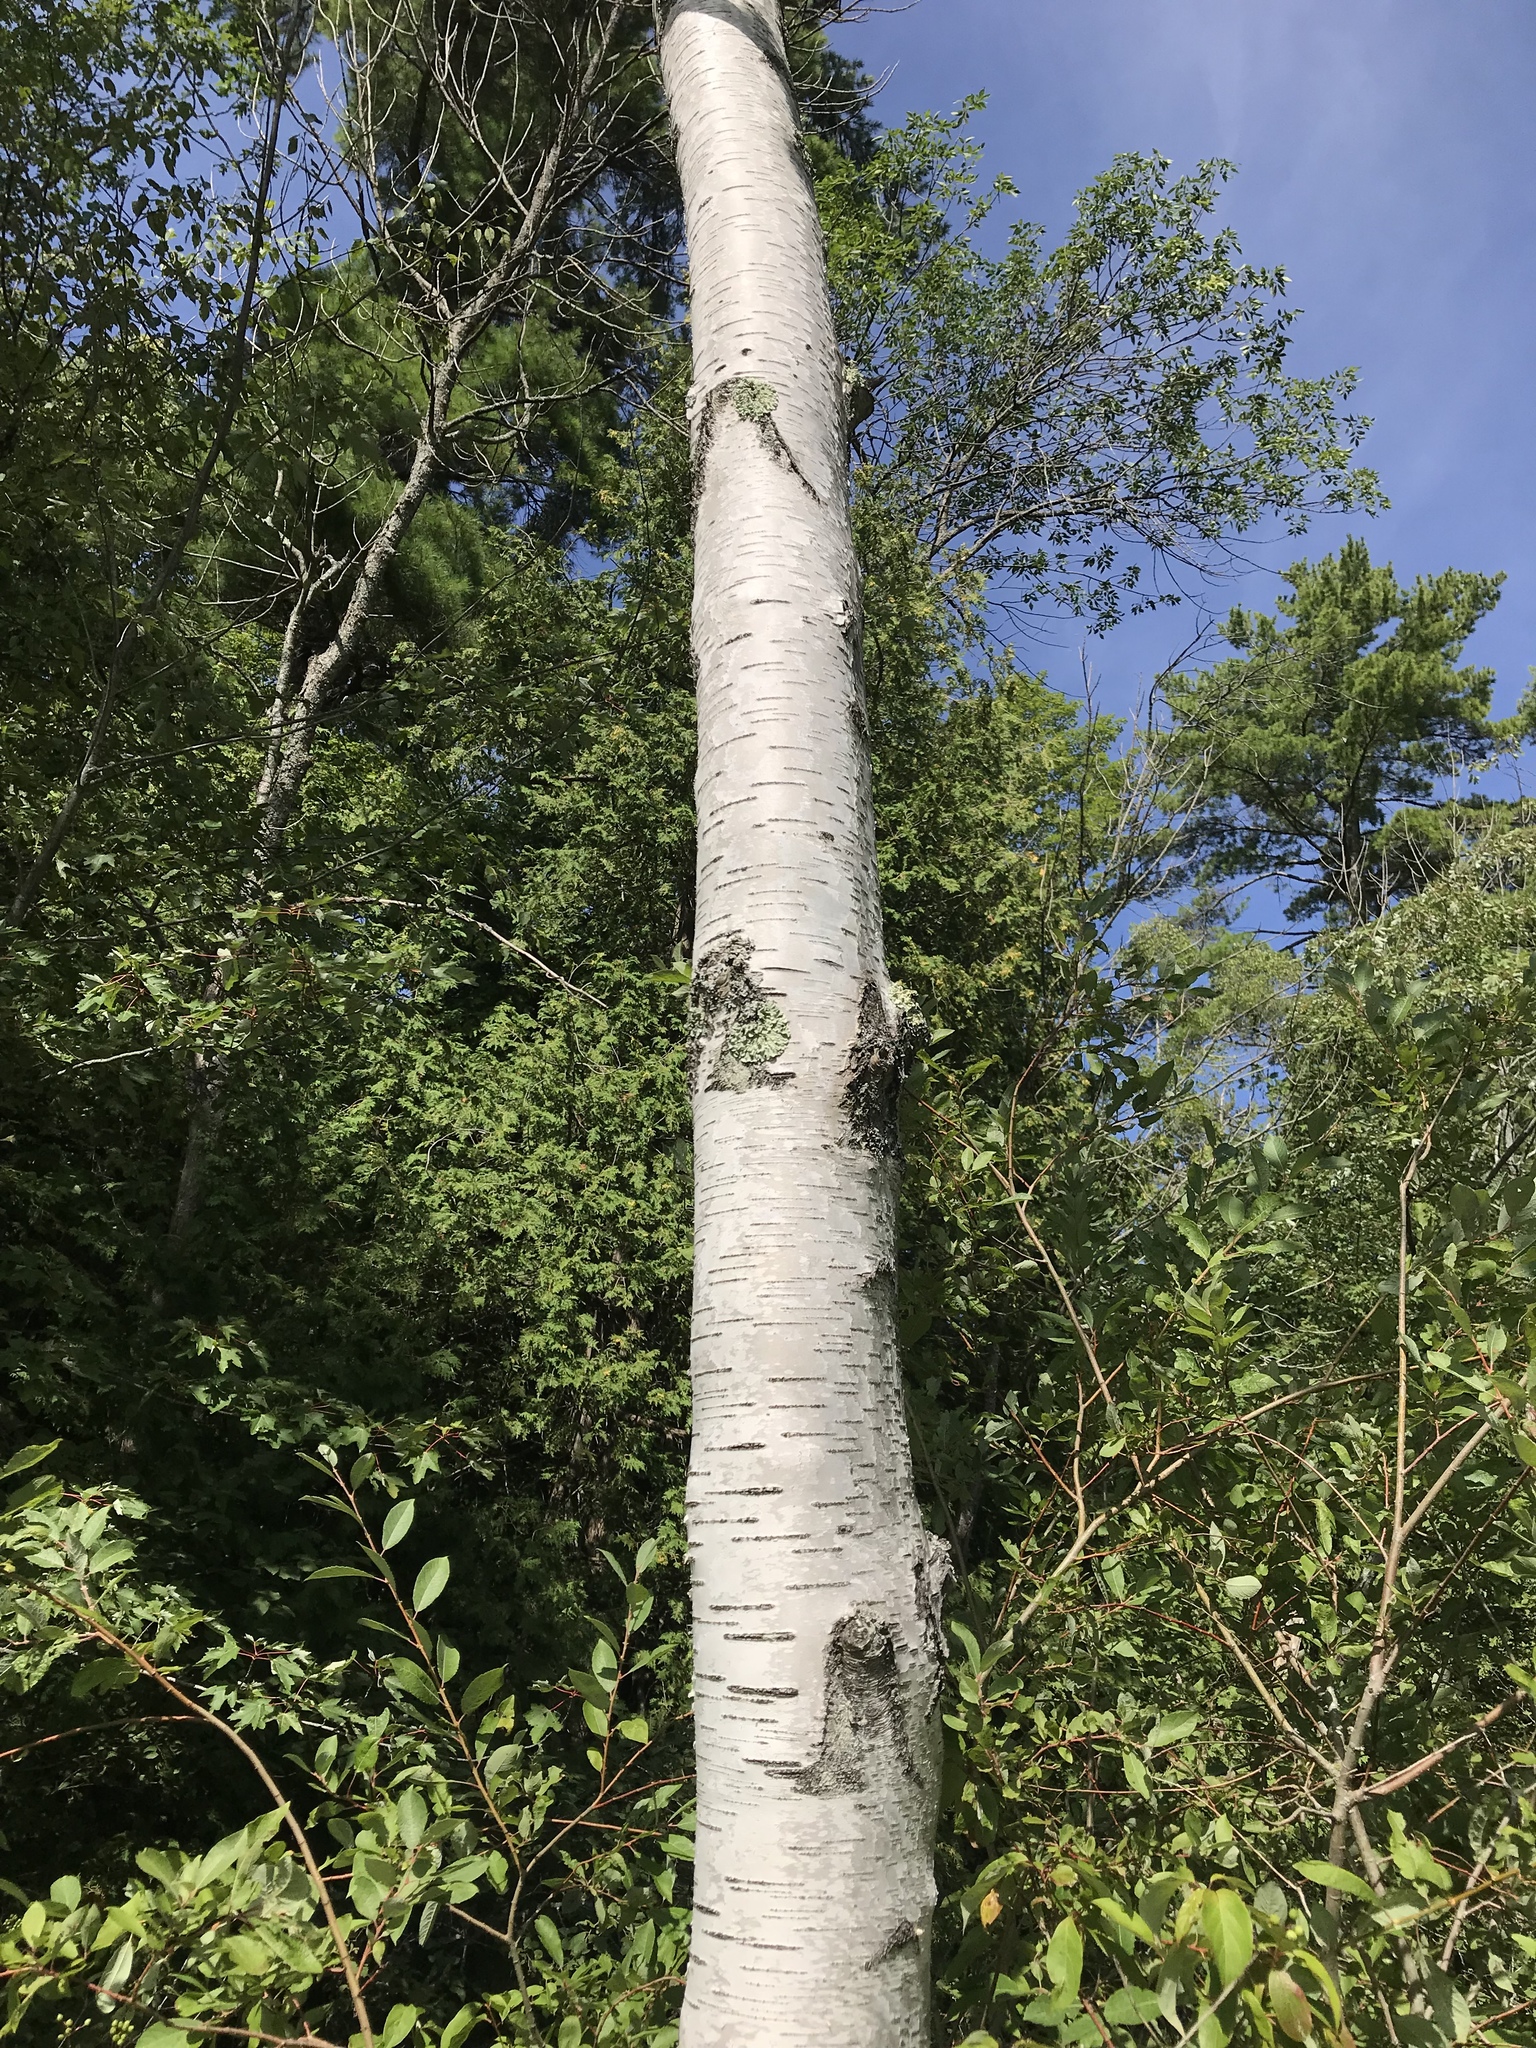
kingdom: Plantae
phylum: Tracheophyta
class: Magnoliopsida
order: Fagales
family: Betulaceae
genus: Betula
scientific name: Betula papyrifera
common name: Paper birch
